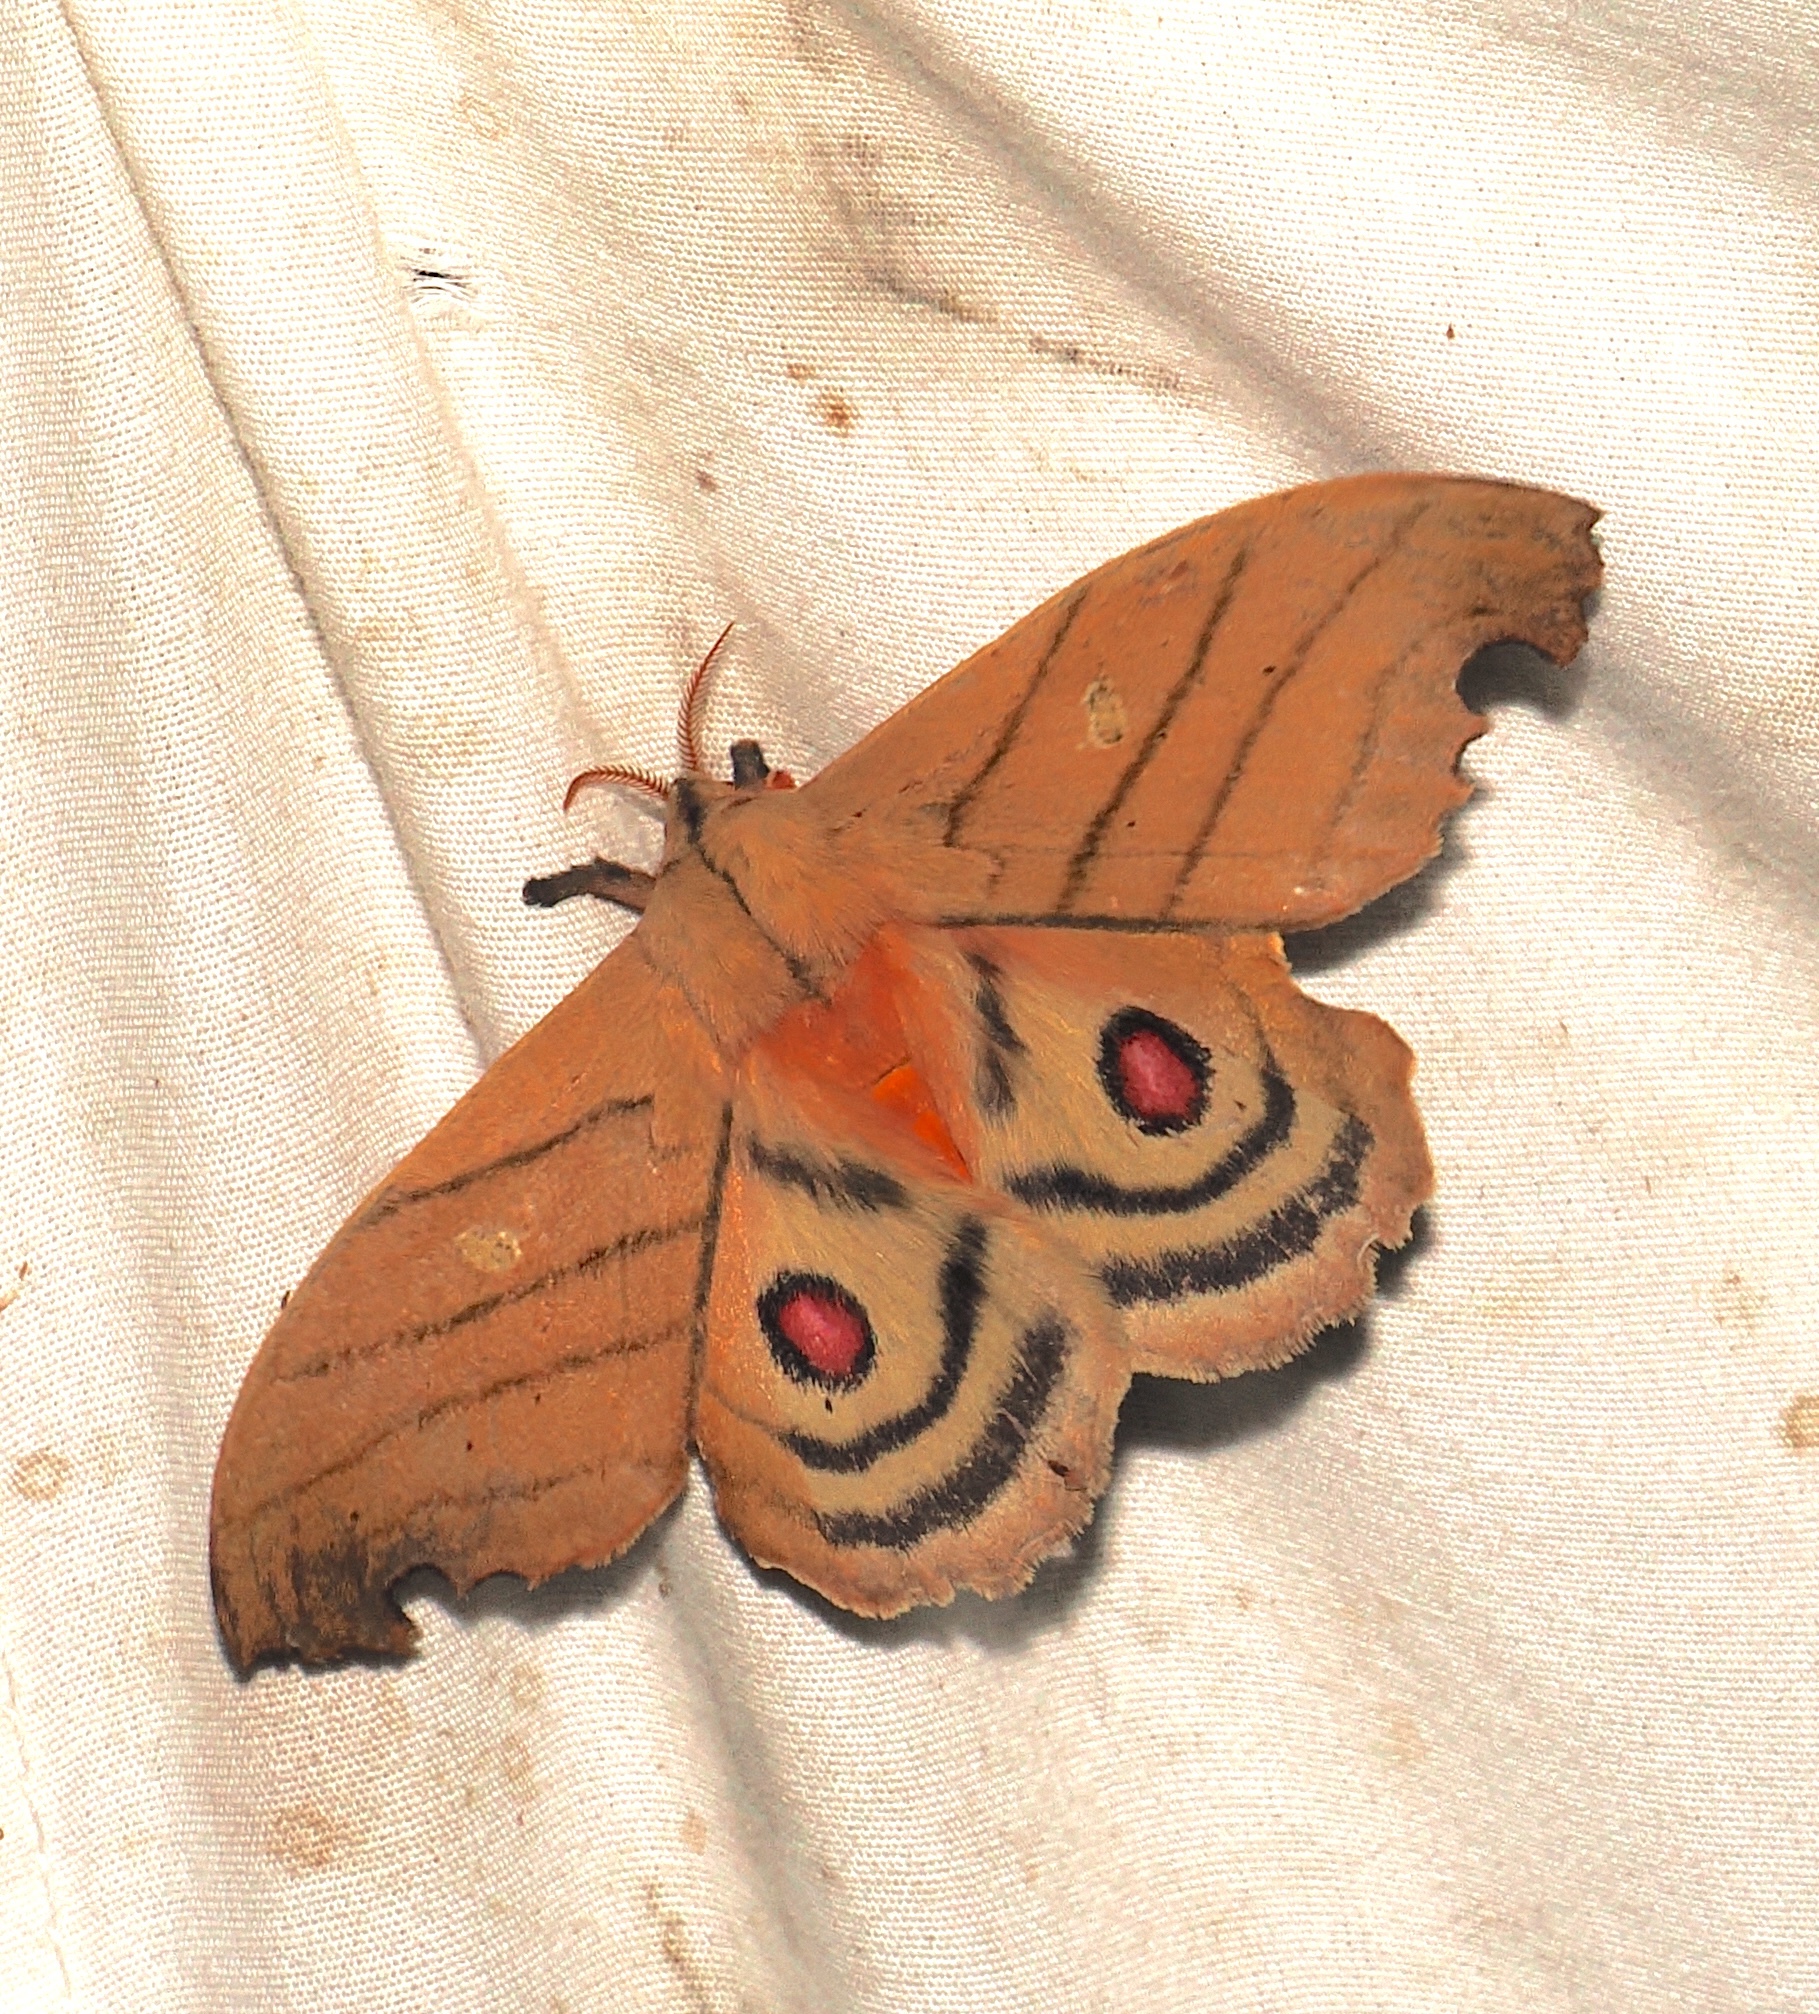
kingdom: Animalia
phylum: Arthropoda
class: Insecta
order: Lepidoptera
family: Saturniidae
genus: Hyperchiria
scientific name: Hyperchiria plicata
